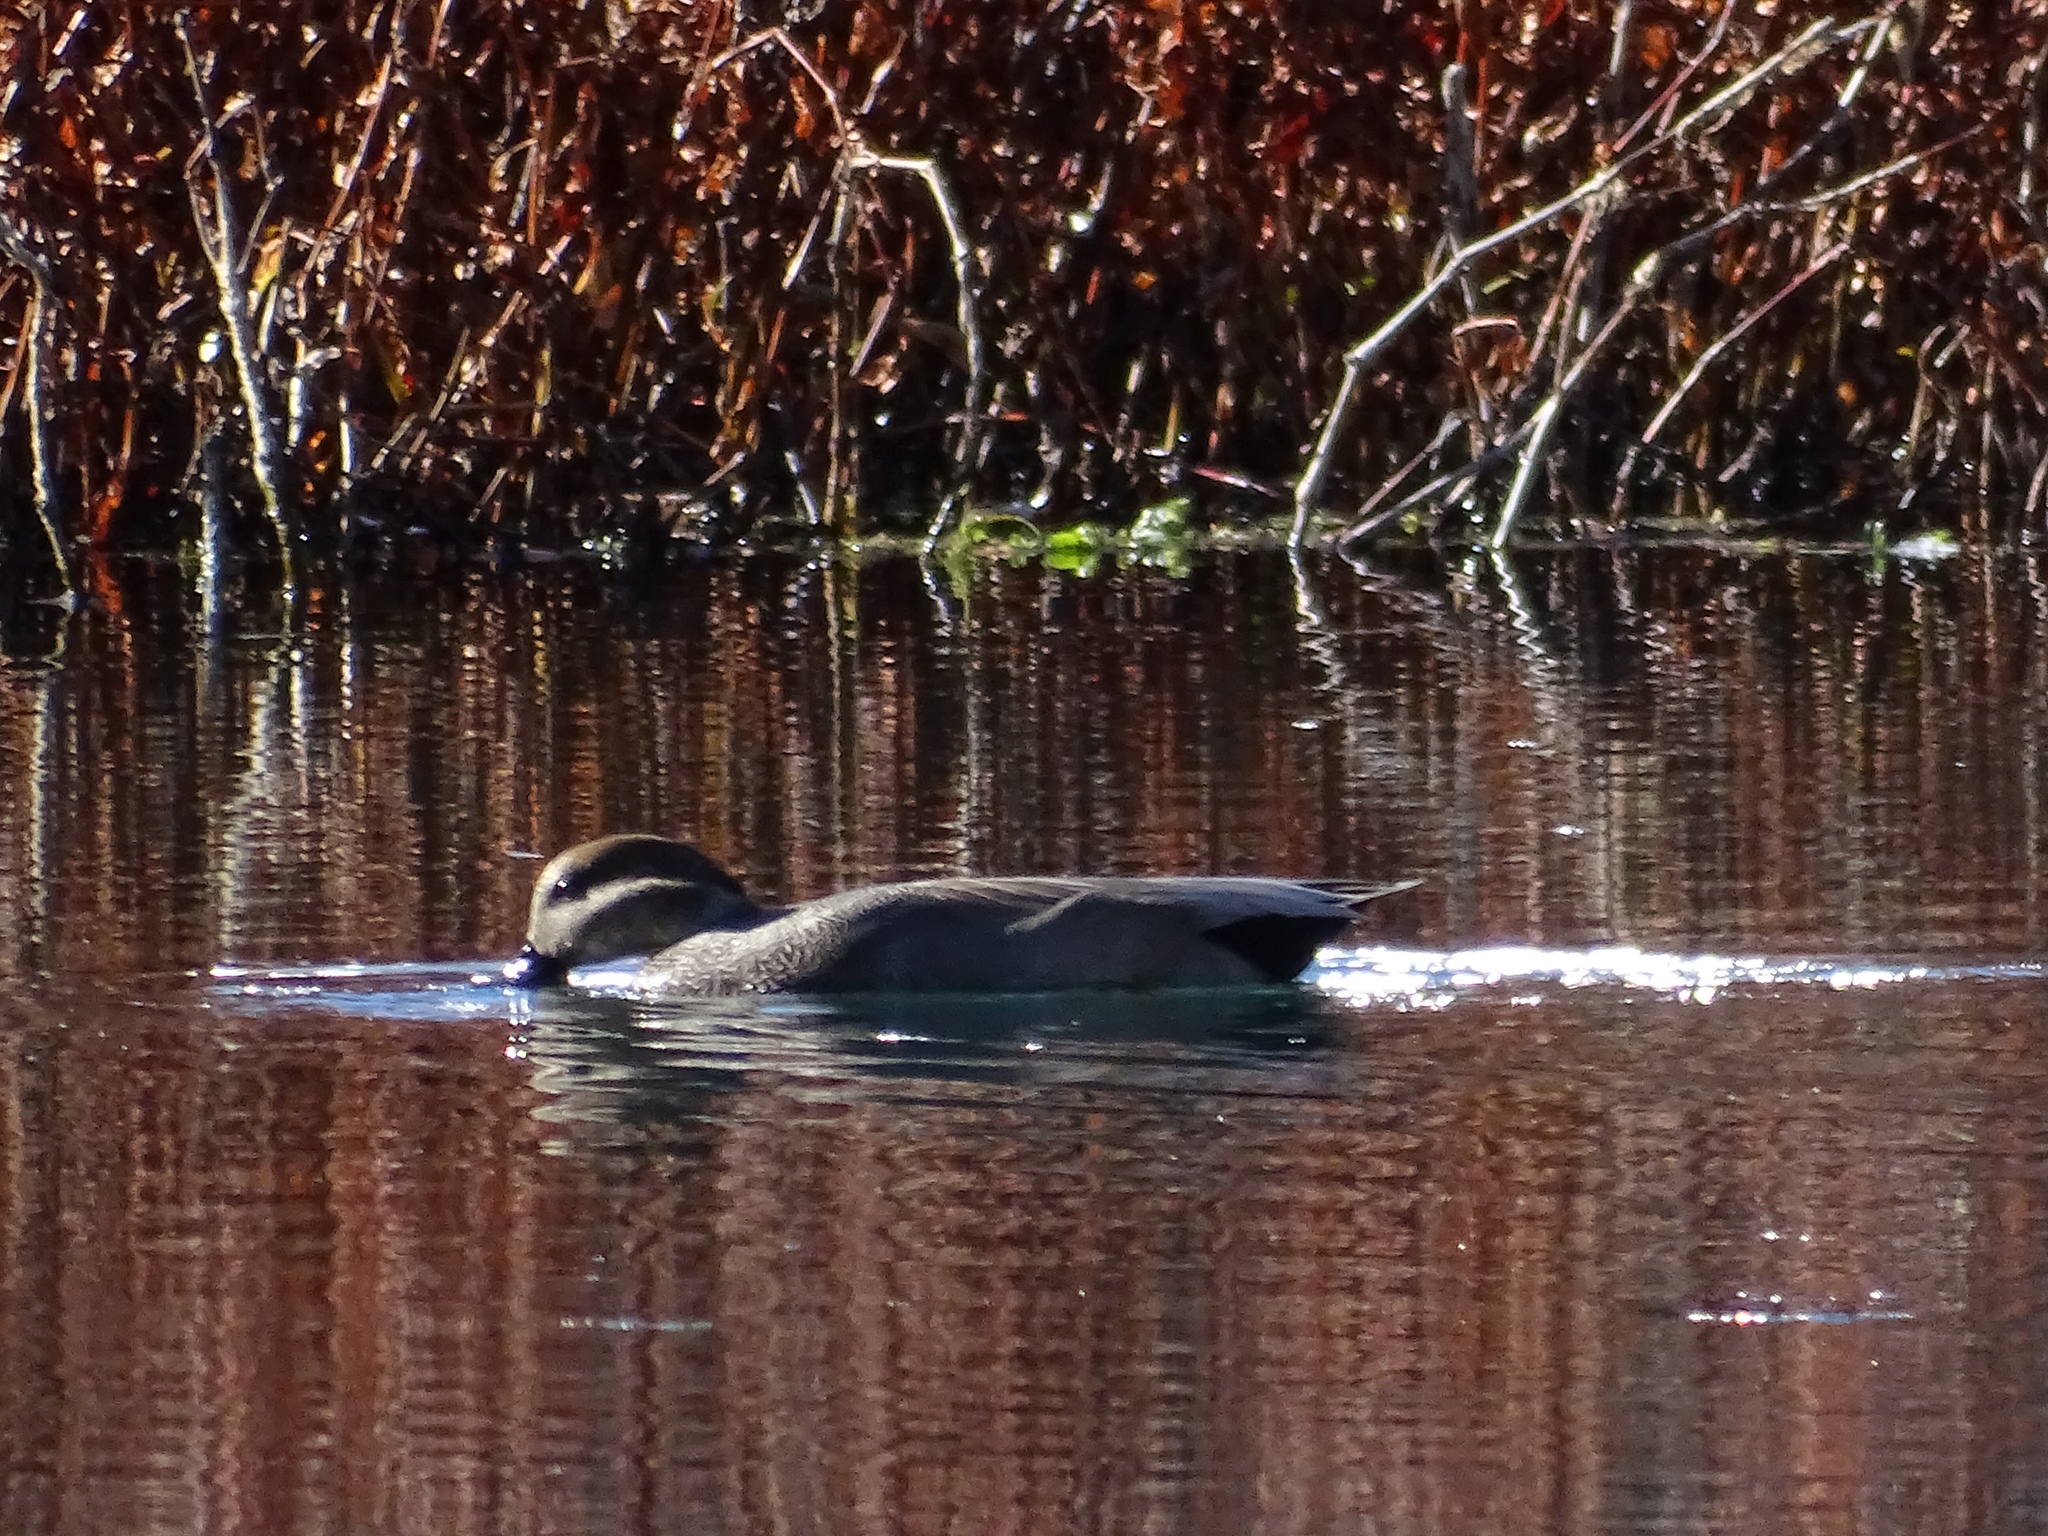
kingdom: Animalia
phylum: Chordata
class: Aves
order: Anseriformes
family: Anatidae
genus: Mareca
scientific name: Mareca strepera
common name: Gadwall
